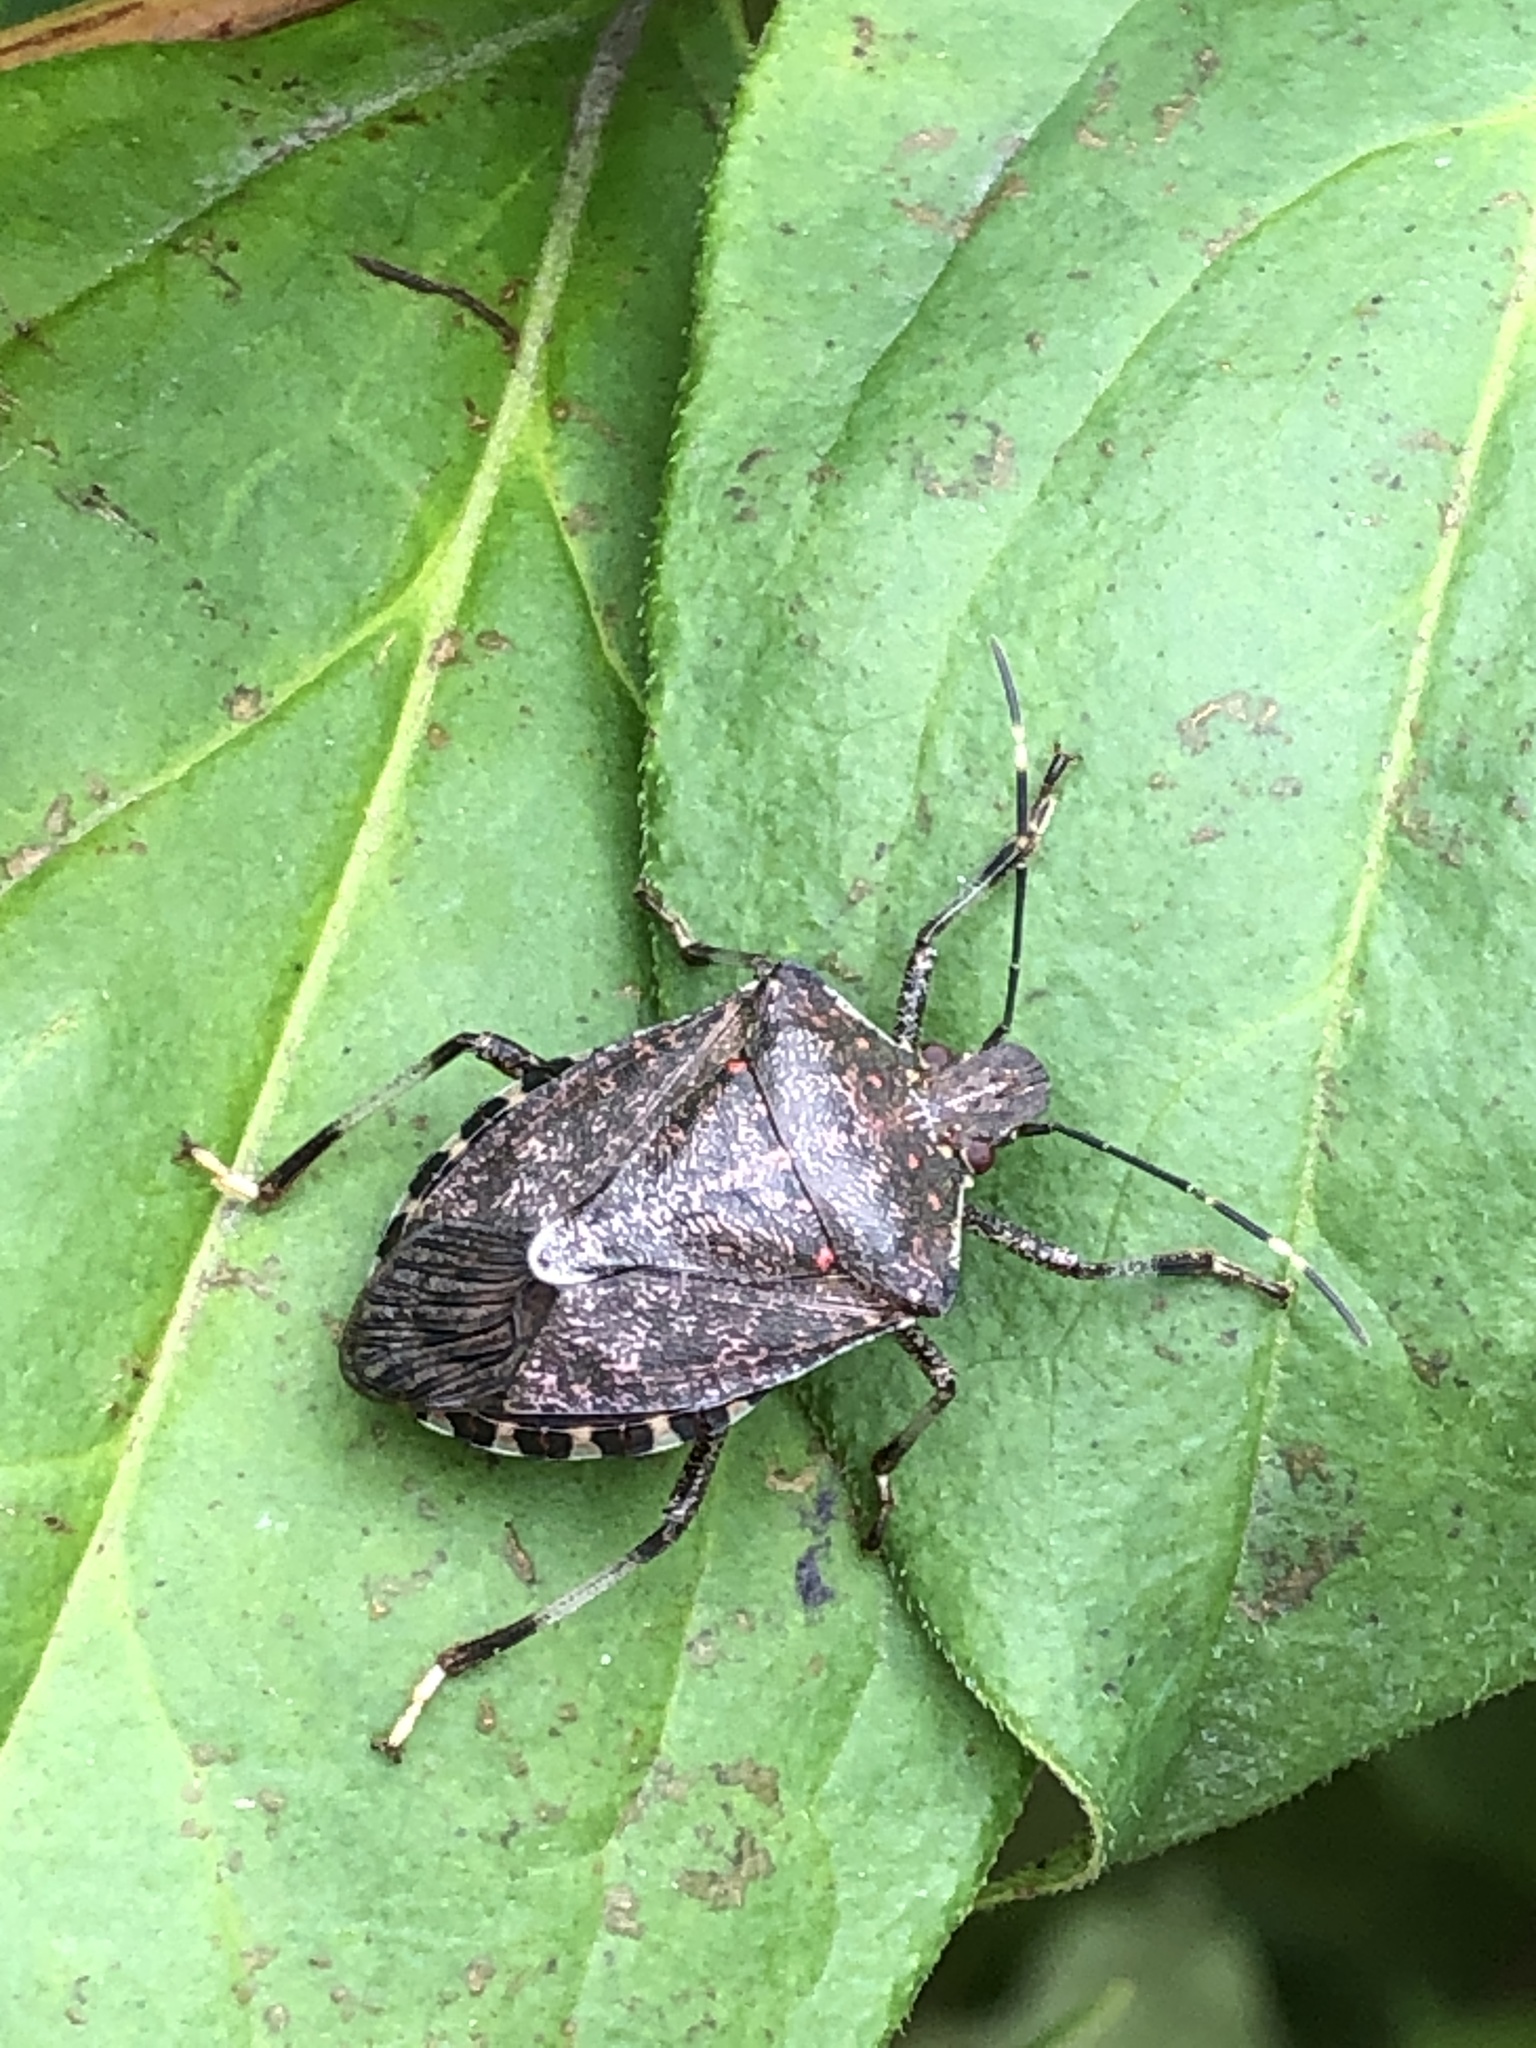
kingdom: Animalia
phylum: Arthropoda
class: Insecta
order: Hemiptera
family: Pentatomidae
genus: Halyomorpha
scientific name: Halyomorpha halys
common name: Brown marmorated stink bug
